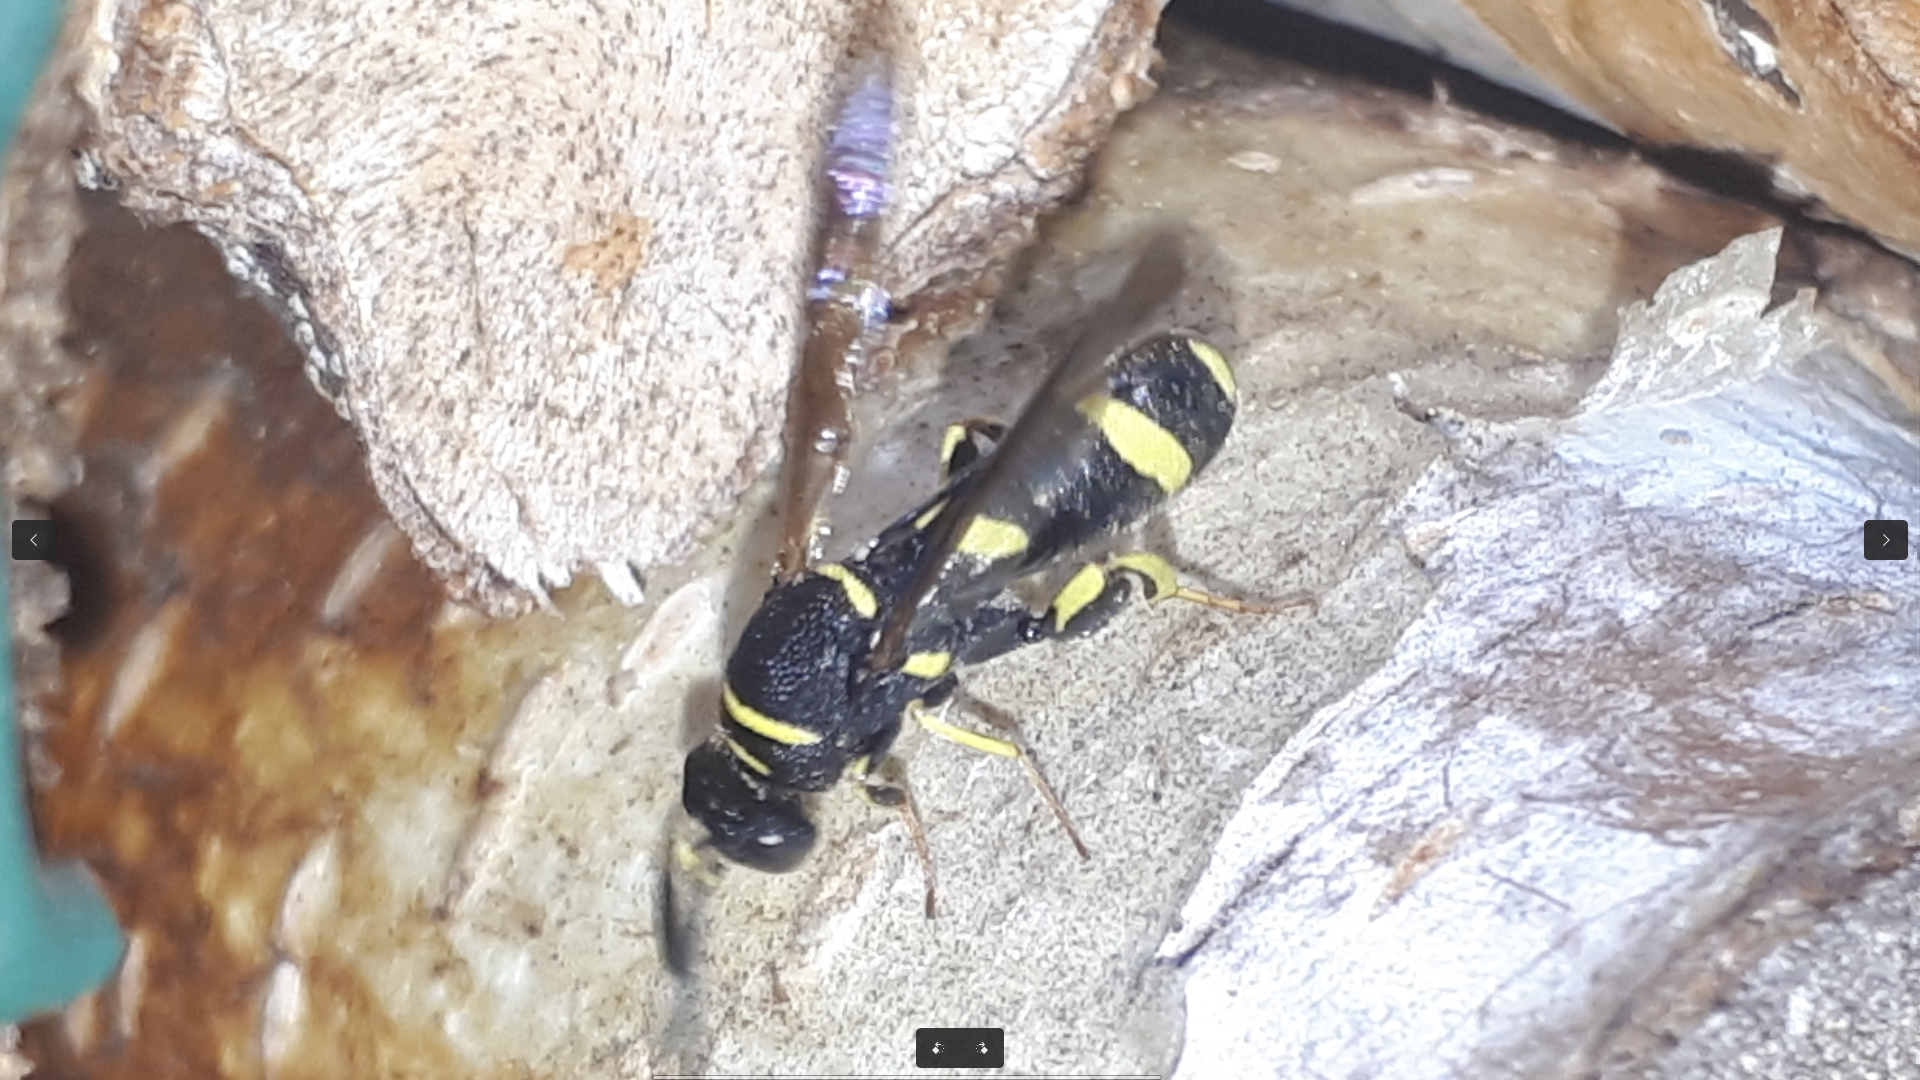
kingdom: Animalia
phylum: Arthropoda
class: Insecta
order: Hymenoptera
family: Leucospidae
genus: Leucospis
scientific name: Leucospis dorsigera
